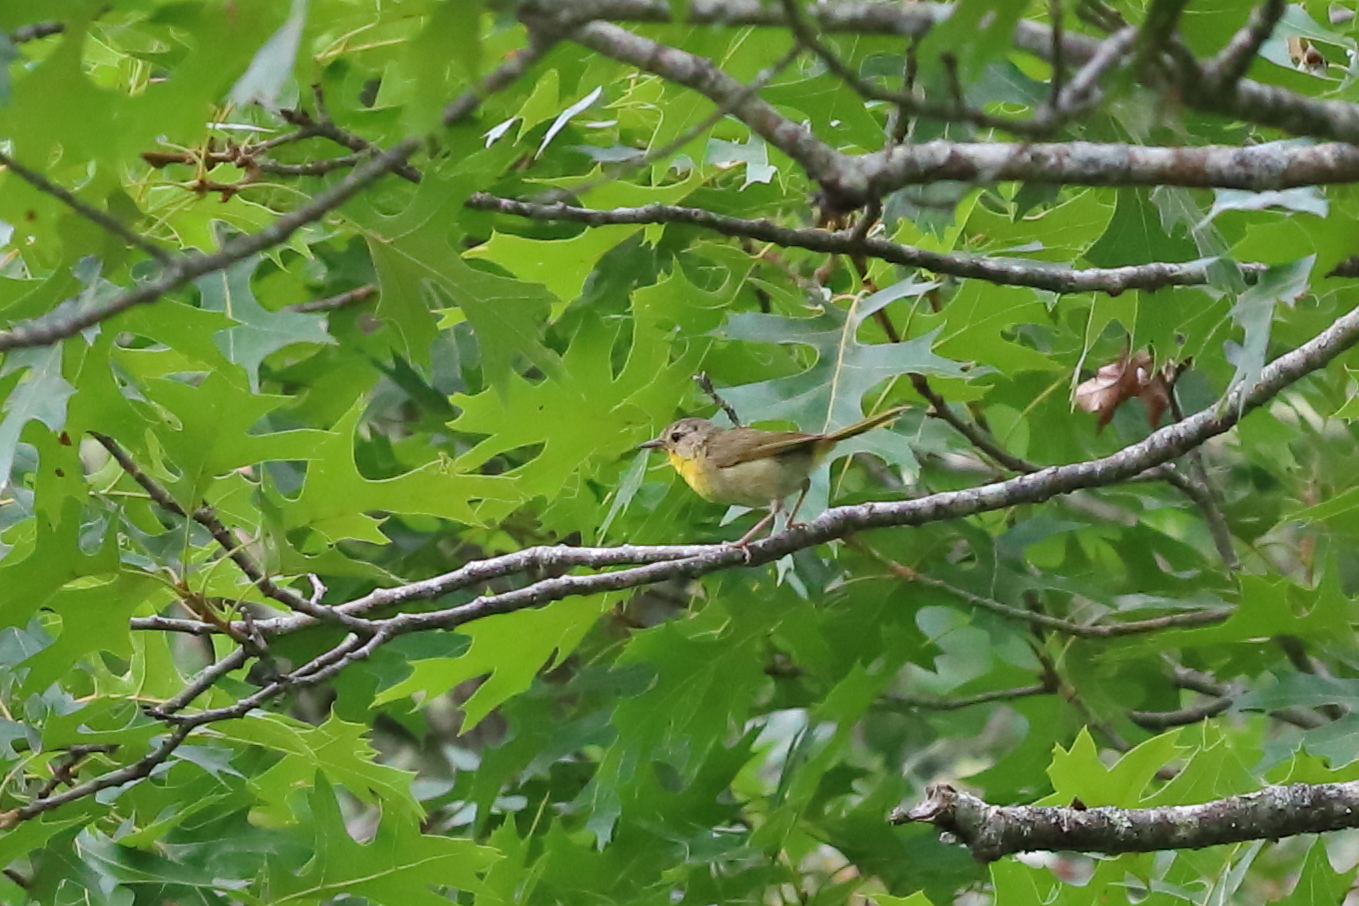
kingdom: Animalia
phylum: Chordata
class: Aves
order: Passeriformes
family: Parulidae
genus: Geothlypis
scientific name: Geothlypis trichas
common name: Common yellowthroat
